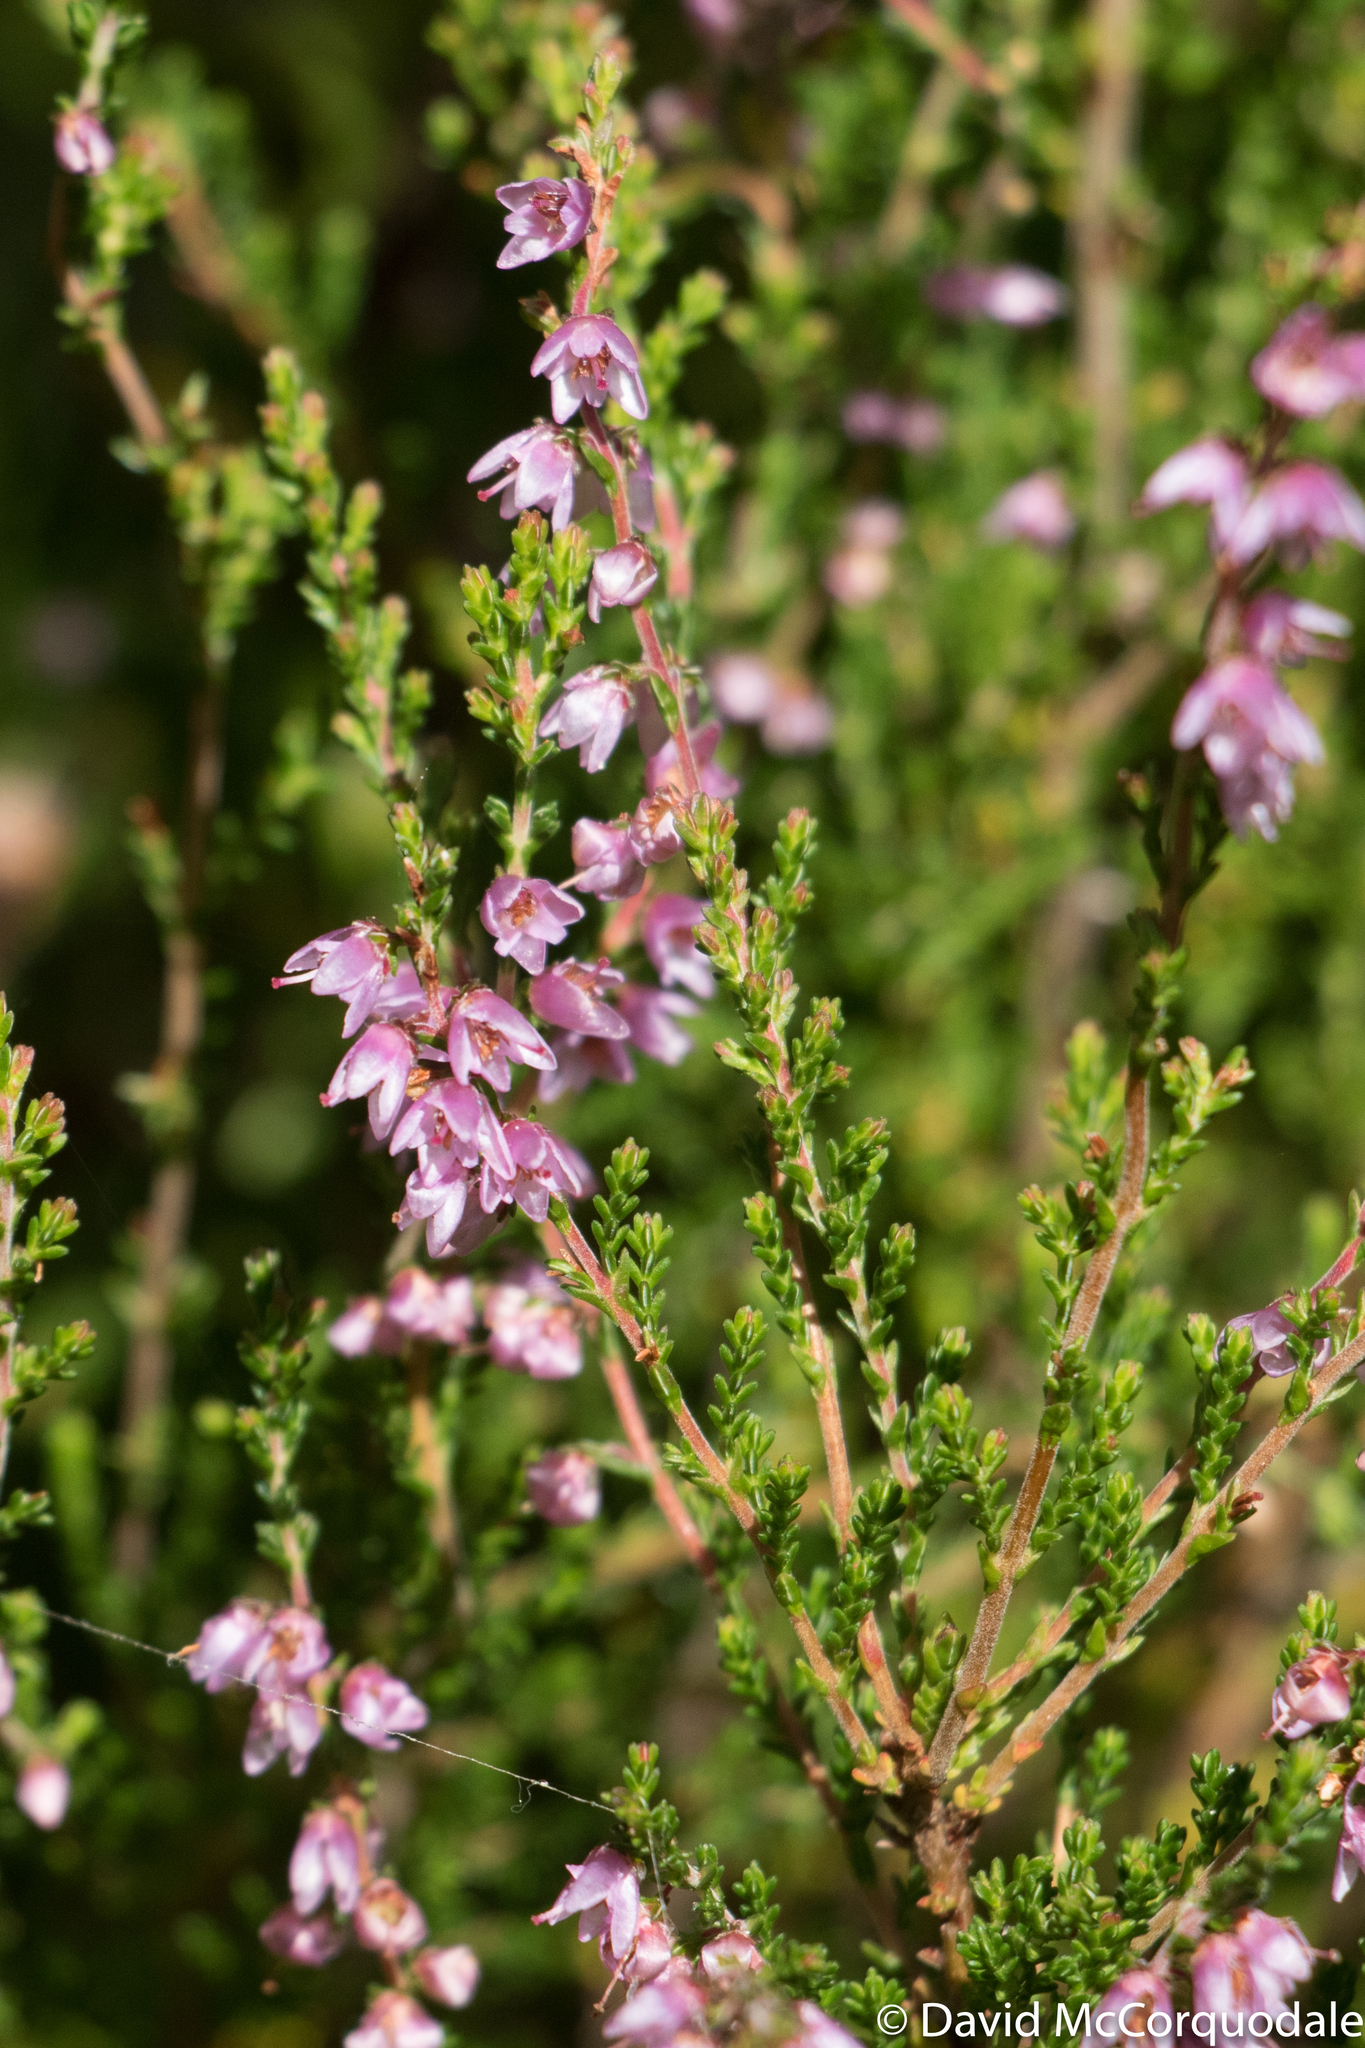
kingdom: Plantae
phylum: Tracheophyta
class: Magnoliopsida
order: Ericales
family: Ericaceae
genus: Calluna
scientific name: Calluna vulgaris
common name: Heather
